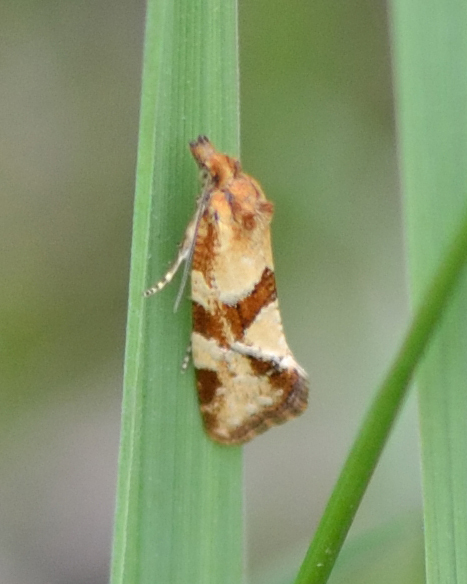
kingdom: Animalia
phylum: Arthropoda
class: Insecta
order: Lepidoptera
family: Tortricidae
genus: Aethes
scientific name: Aethes hartmanniana
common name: Scabious conch
